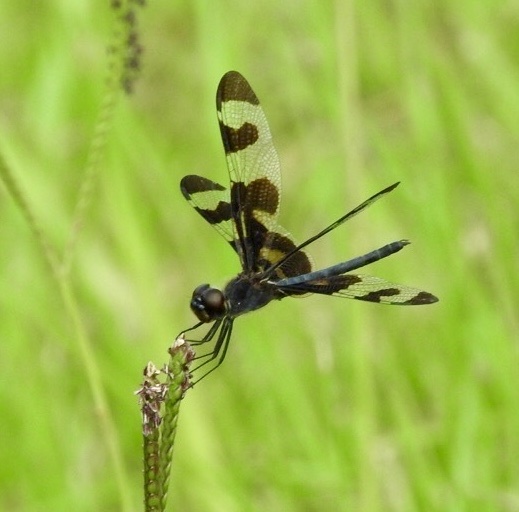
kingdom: Animalia
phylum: Arthropoda
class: Insecta
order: Odonata
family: Libellulidae
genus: Celithemis
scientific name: Celithemis fasciata
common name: Banded pennant
